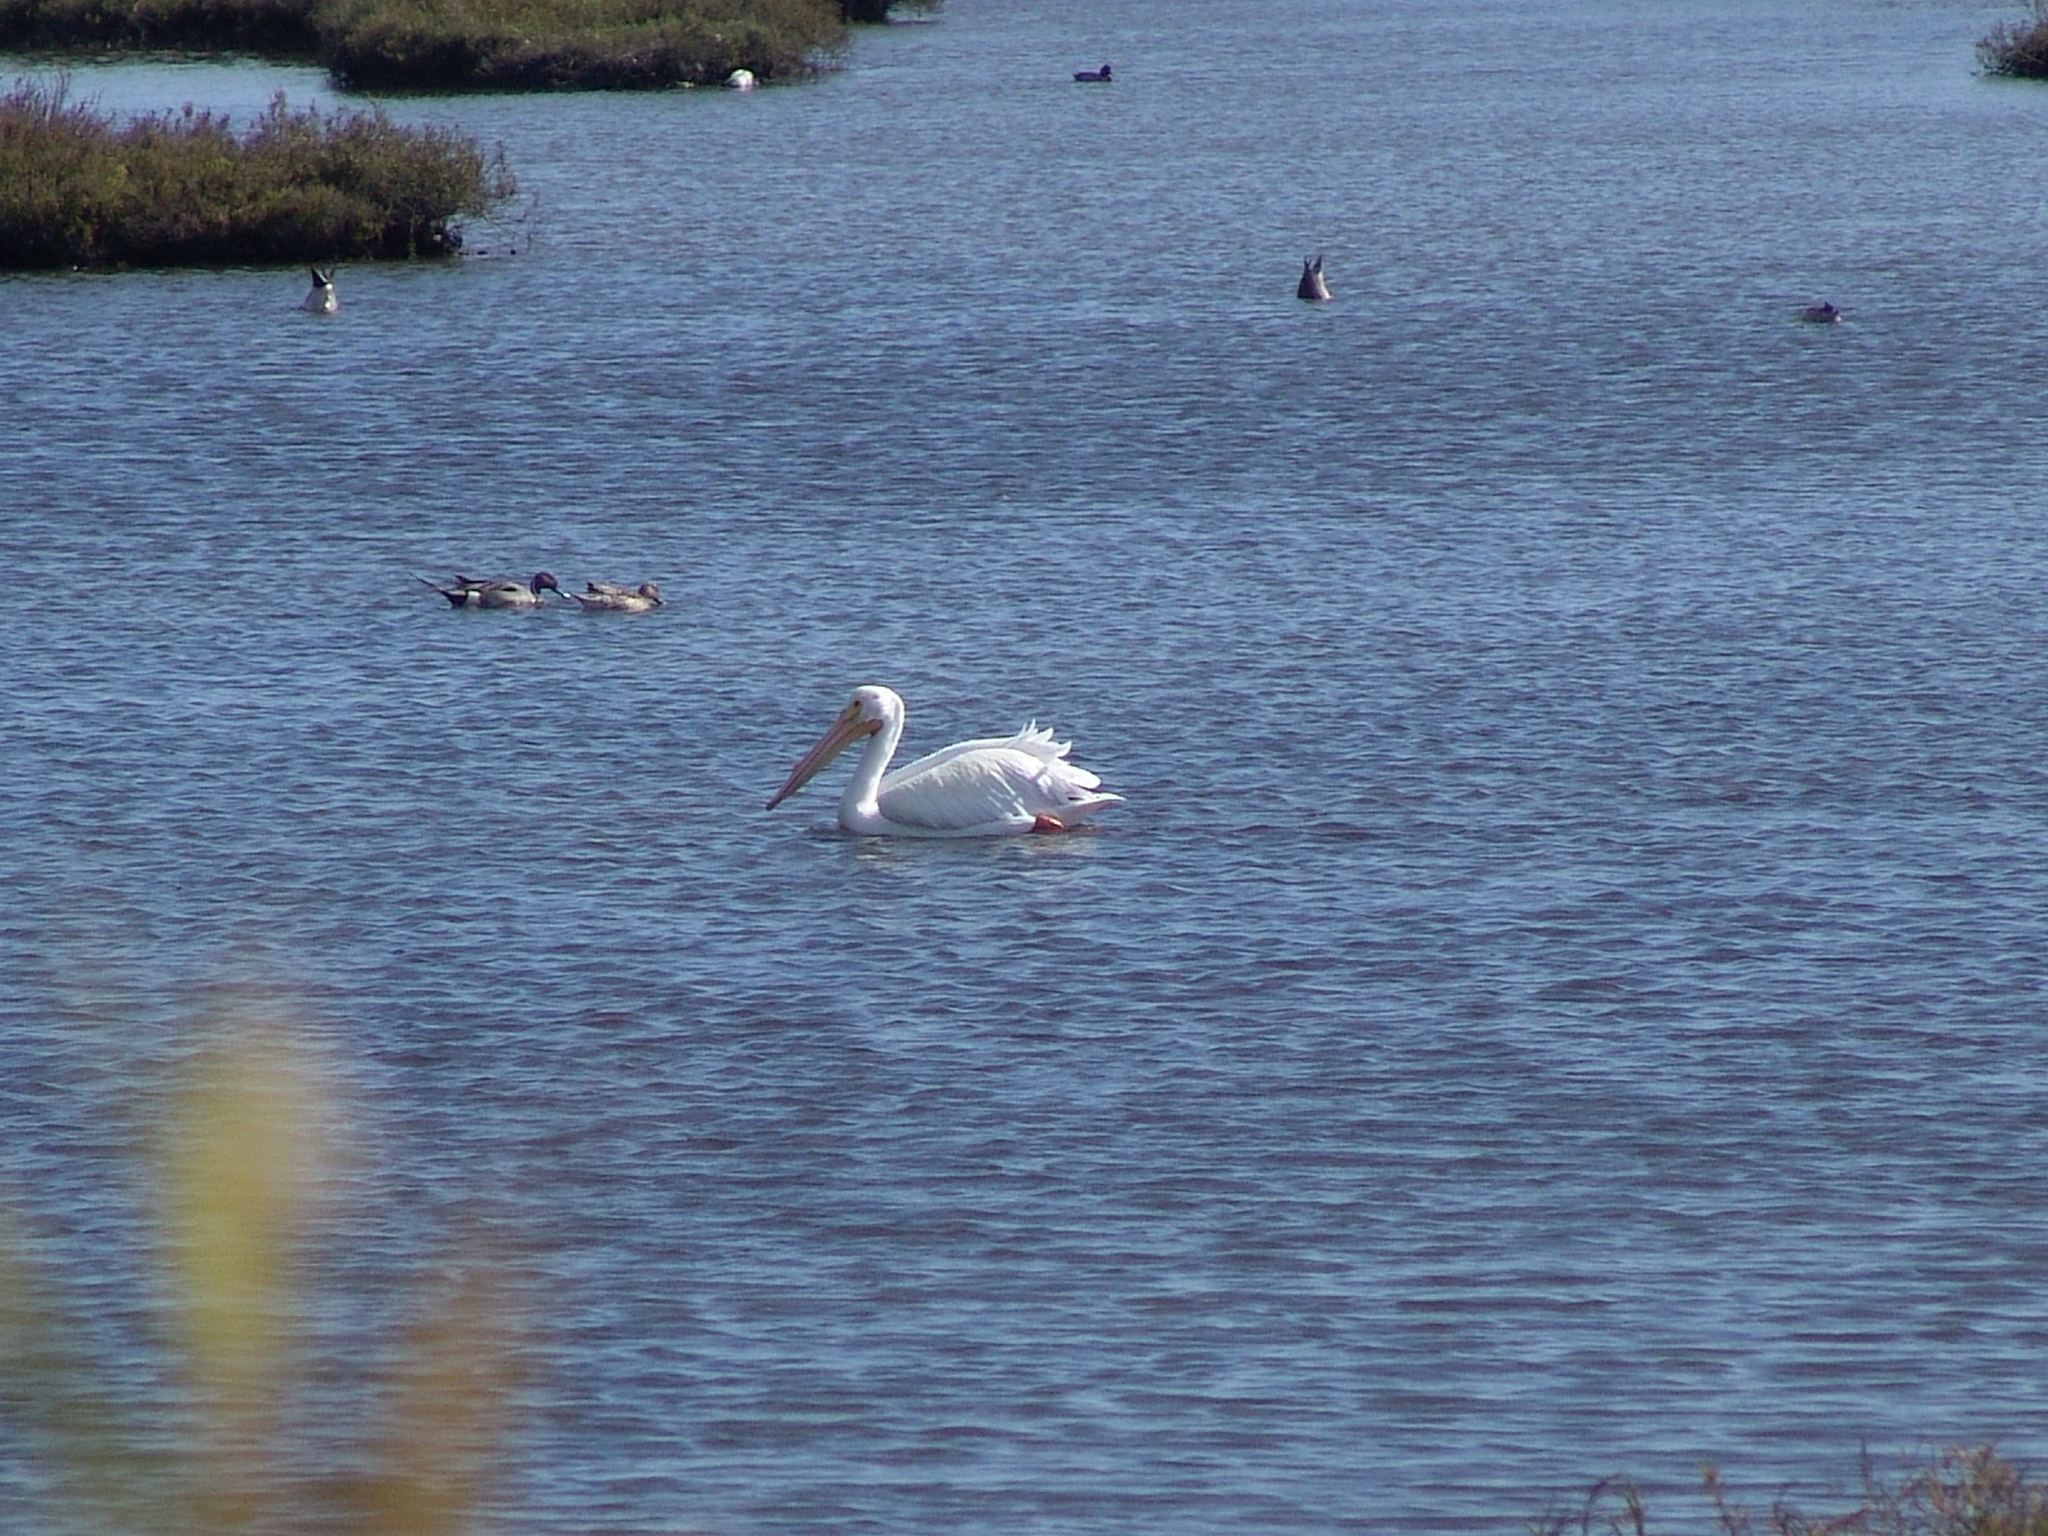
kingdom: Animalia
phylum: Chordata
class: Aves
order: Pelecaniformes
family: Pelecanidae
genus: Pelecanus
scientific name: Pelecanus erythrorhynchos
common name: American white pelican
